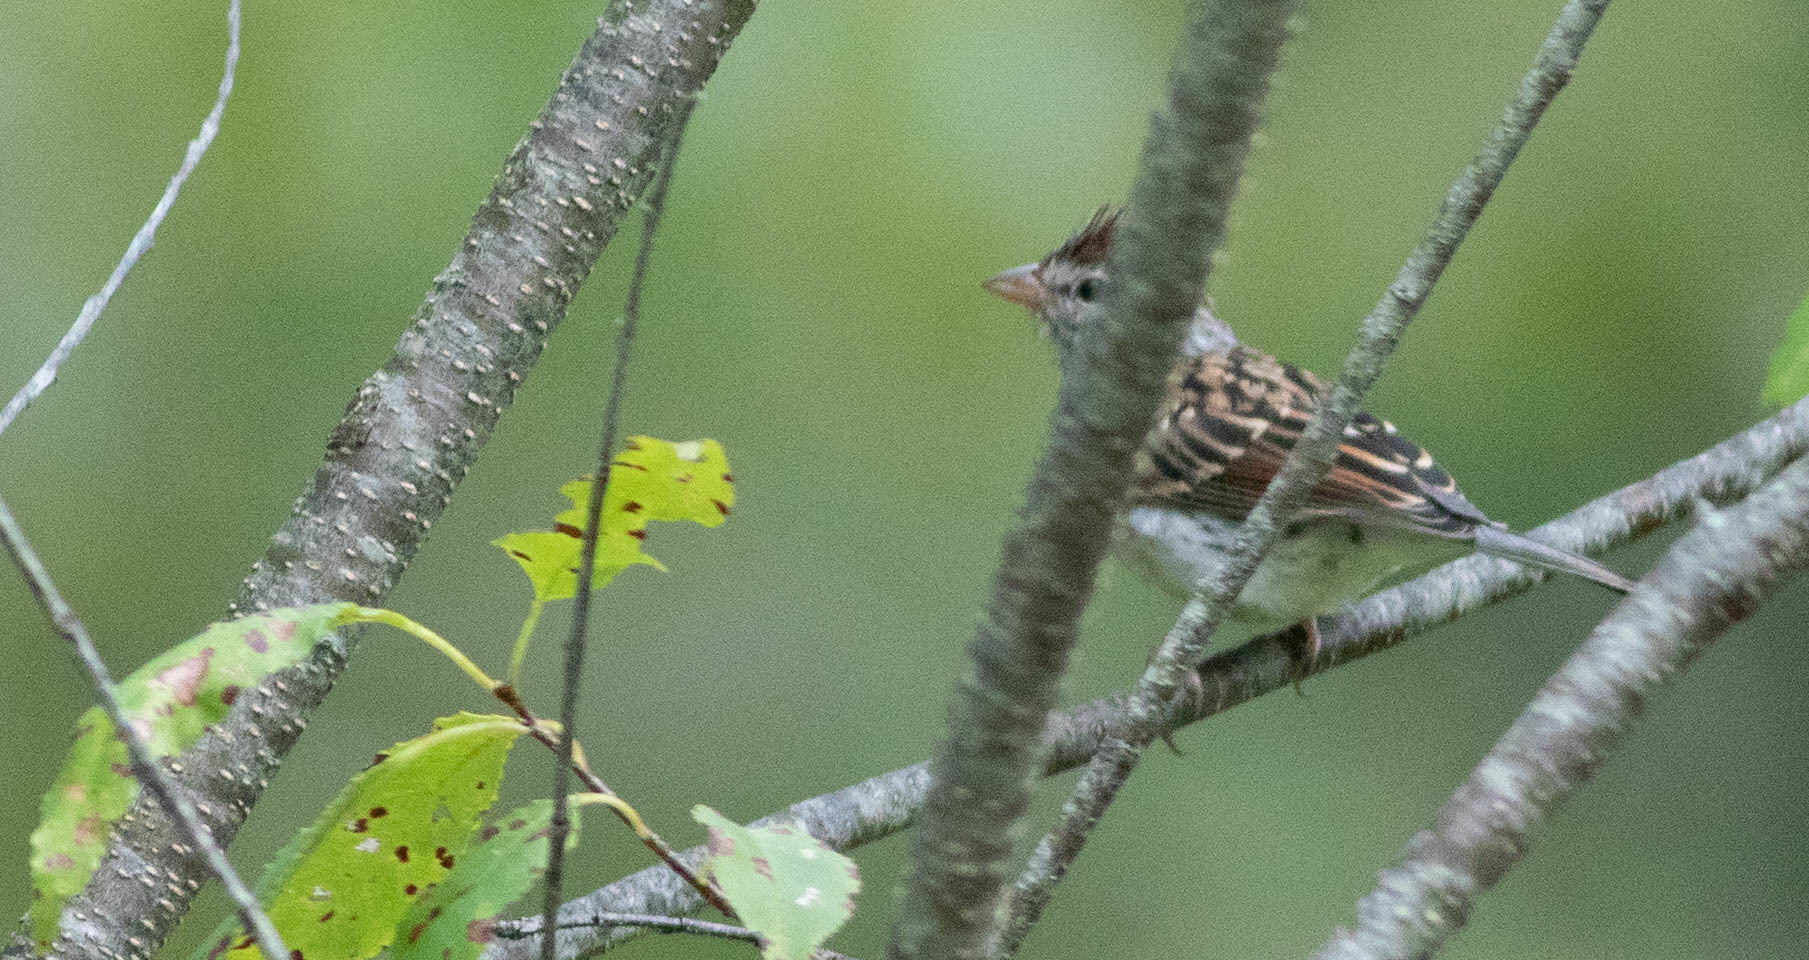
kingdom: Animalia
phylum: Chordata
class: Aves
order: Passeriformes
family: Passerellidae
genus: Spizella
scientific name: Spizella passerina
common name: Chipping sparrow
